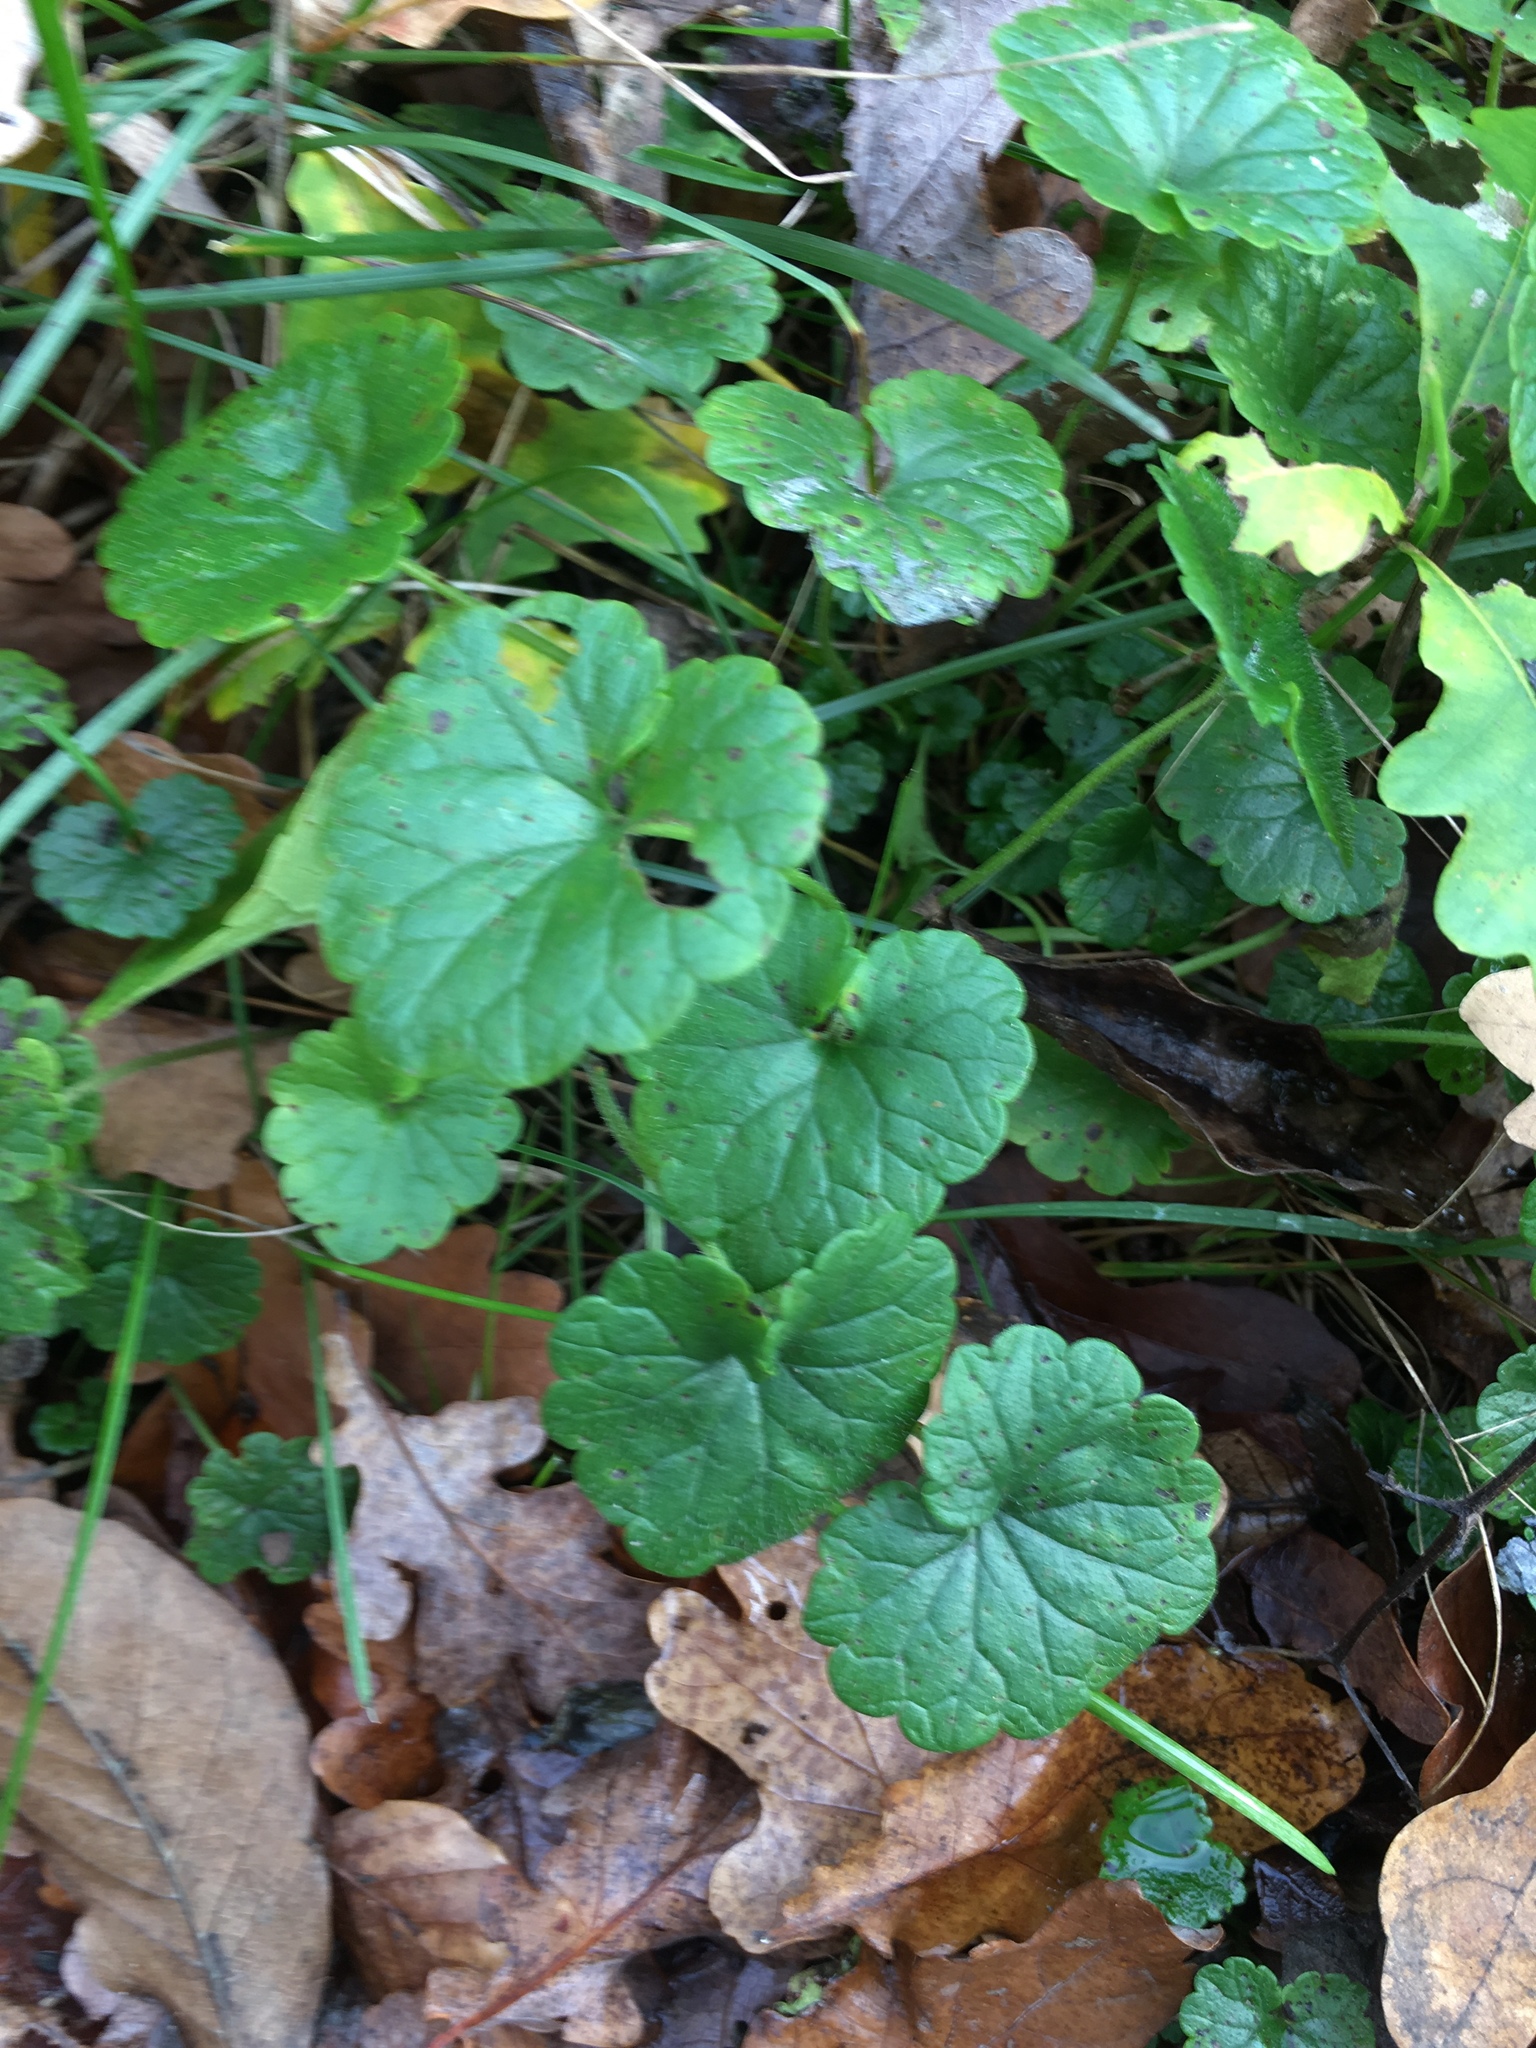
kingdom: Plantae
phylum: Tracheophyta
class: Magnoliopsida
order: Lamiales
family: Lamiaceae
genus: Glechoma
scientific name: Glechoma hederacea
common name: Ground ivy
